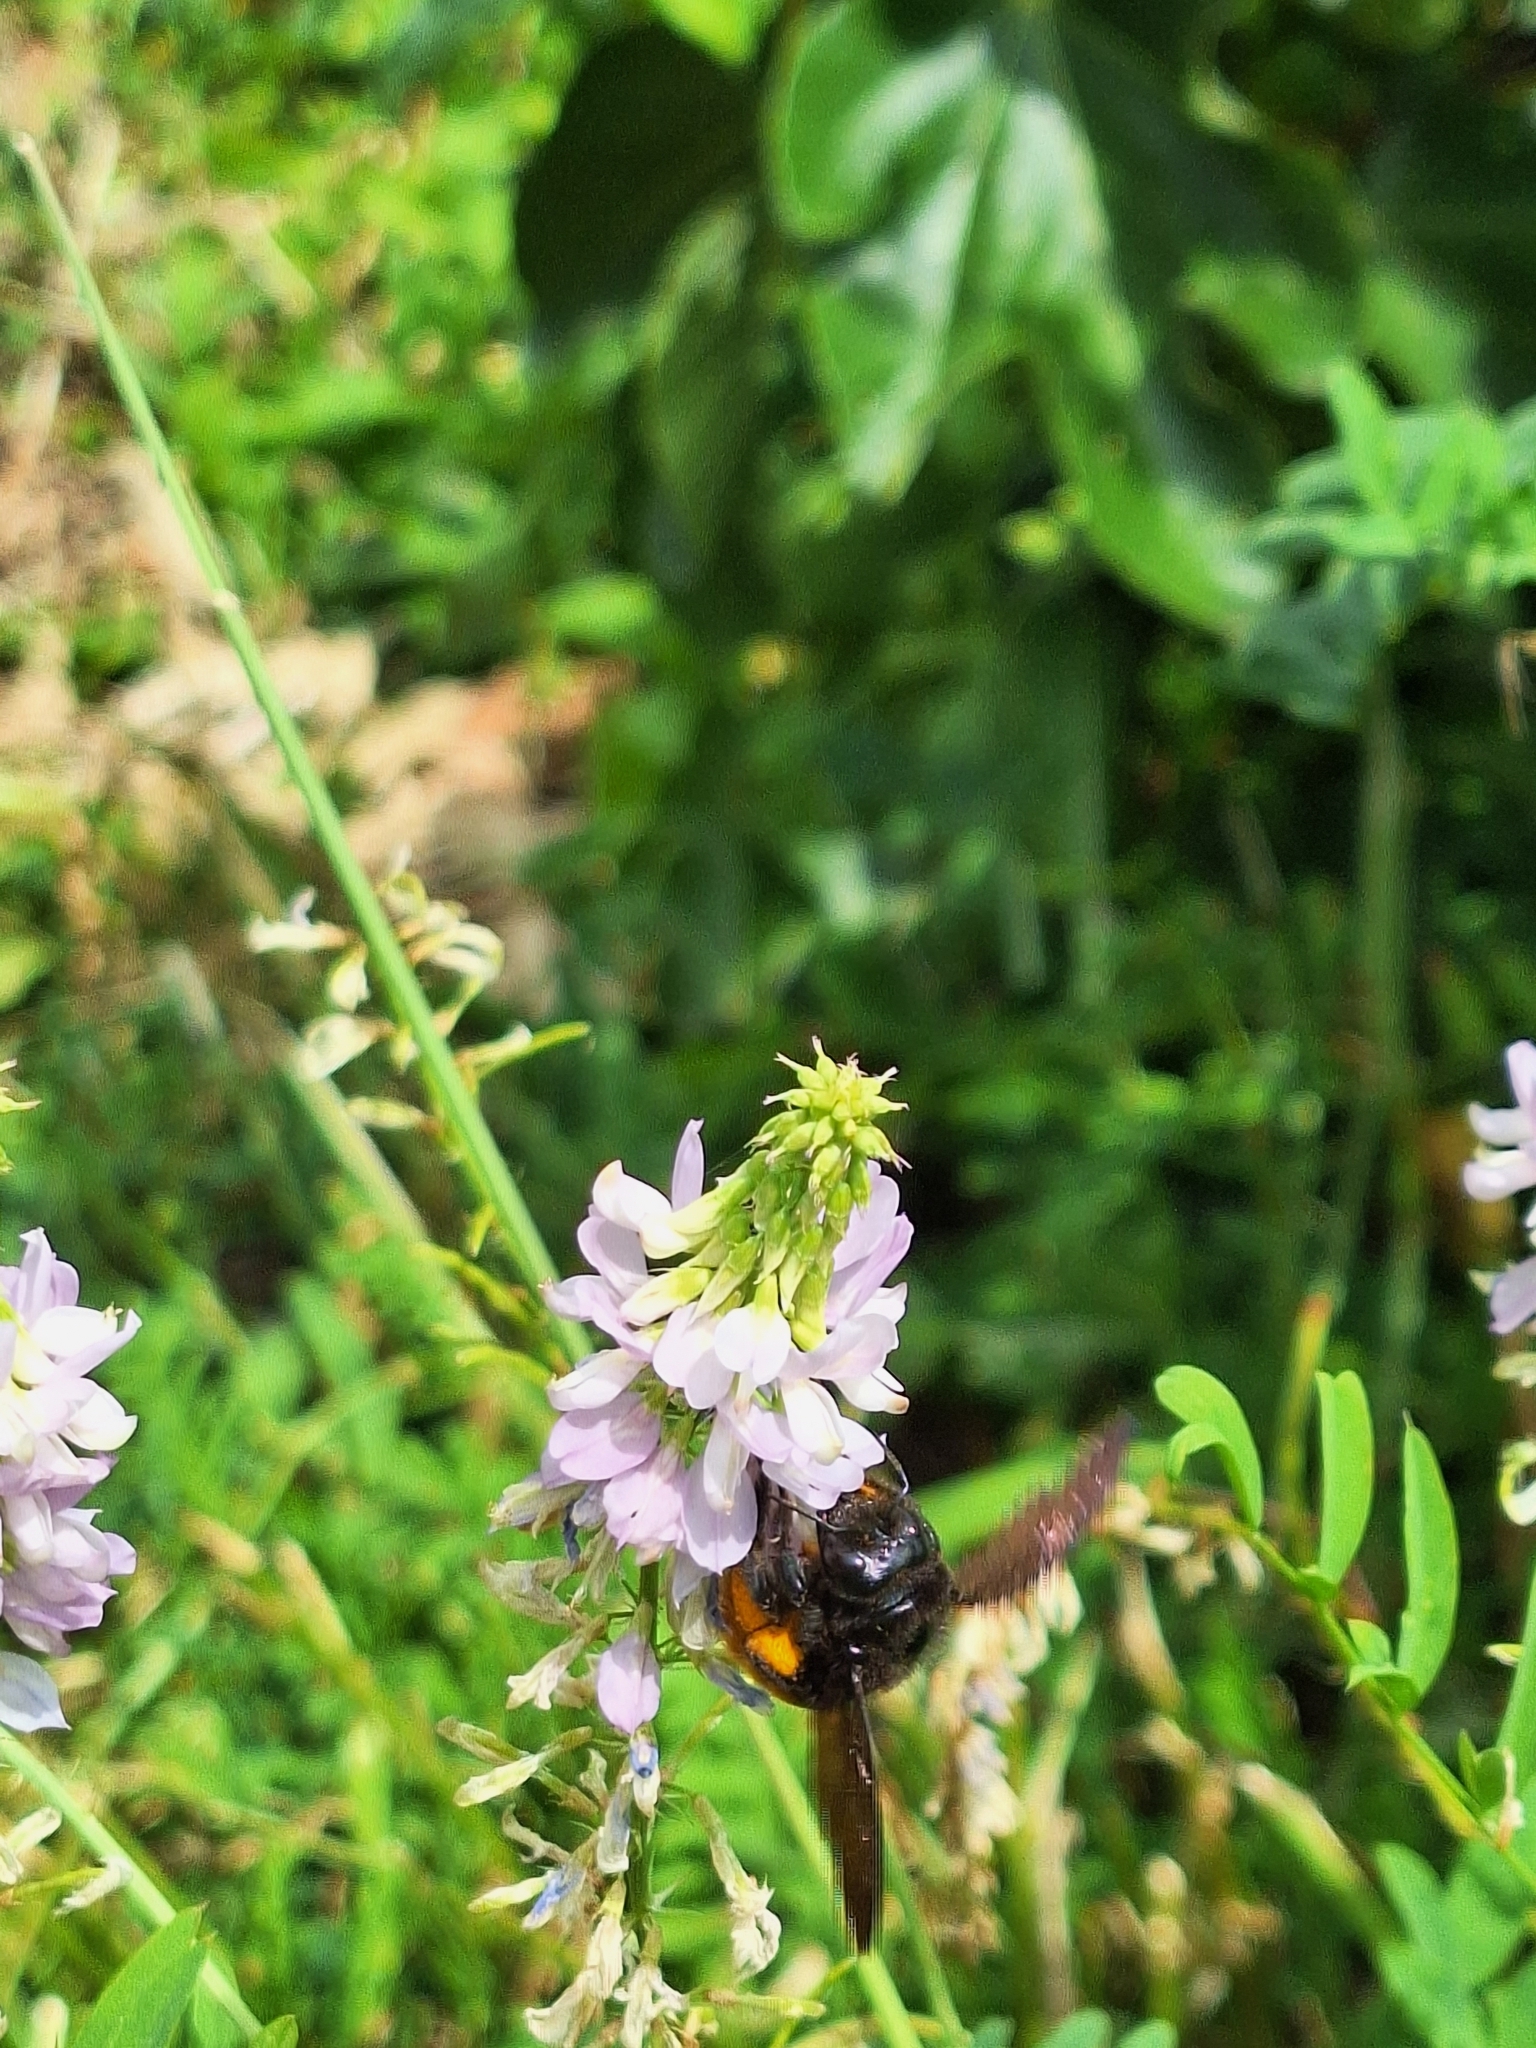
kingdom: Animalia
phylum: Arthropoda
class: Insecta
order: Hymenoptera
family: Apidae
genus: Xylocopa
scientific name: Xylocopa augusti
